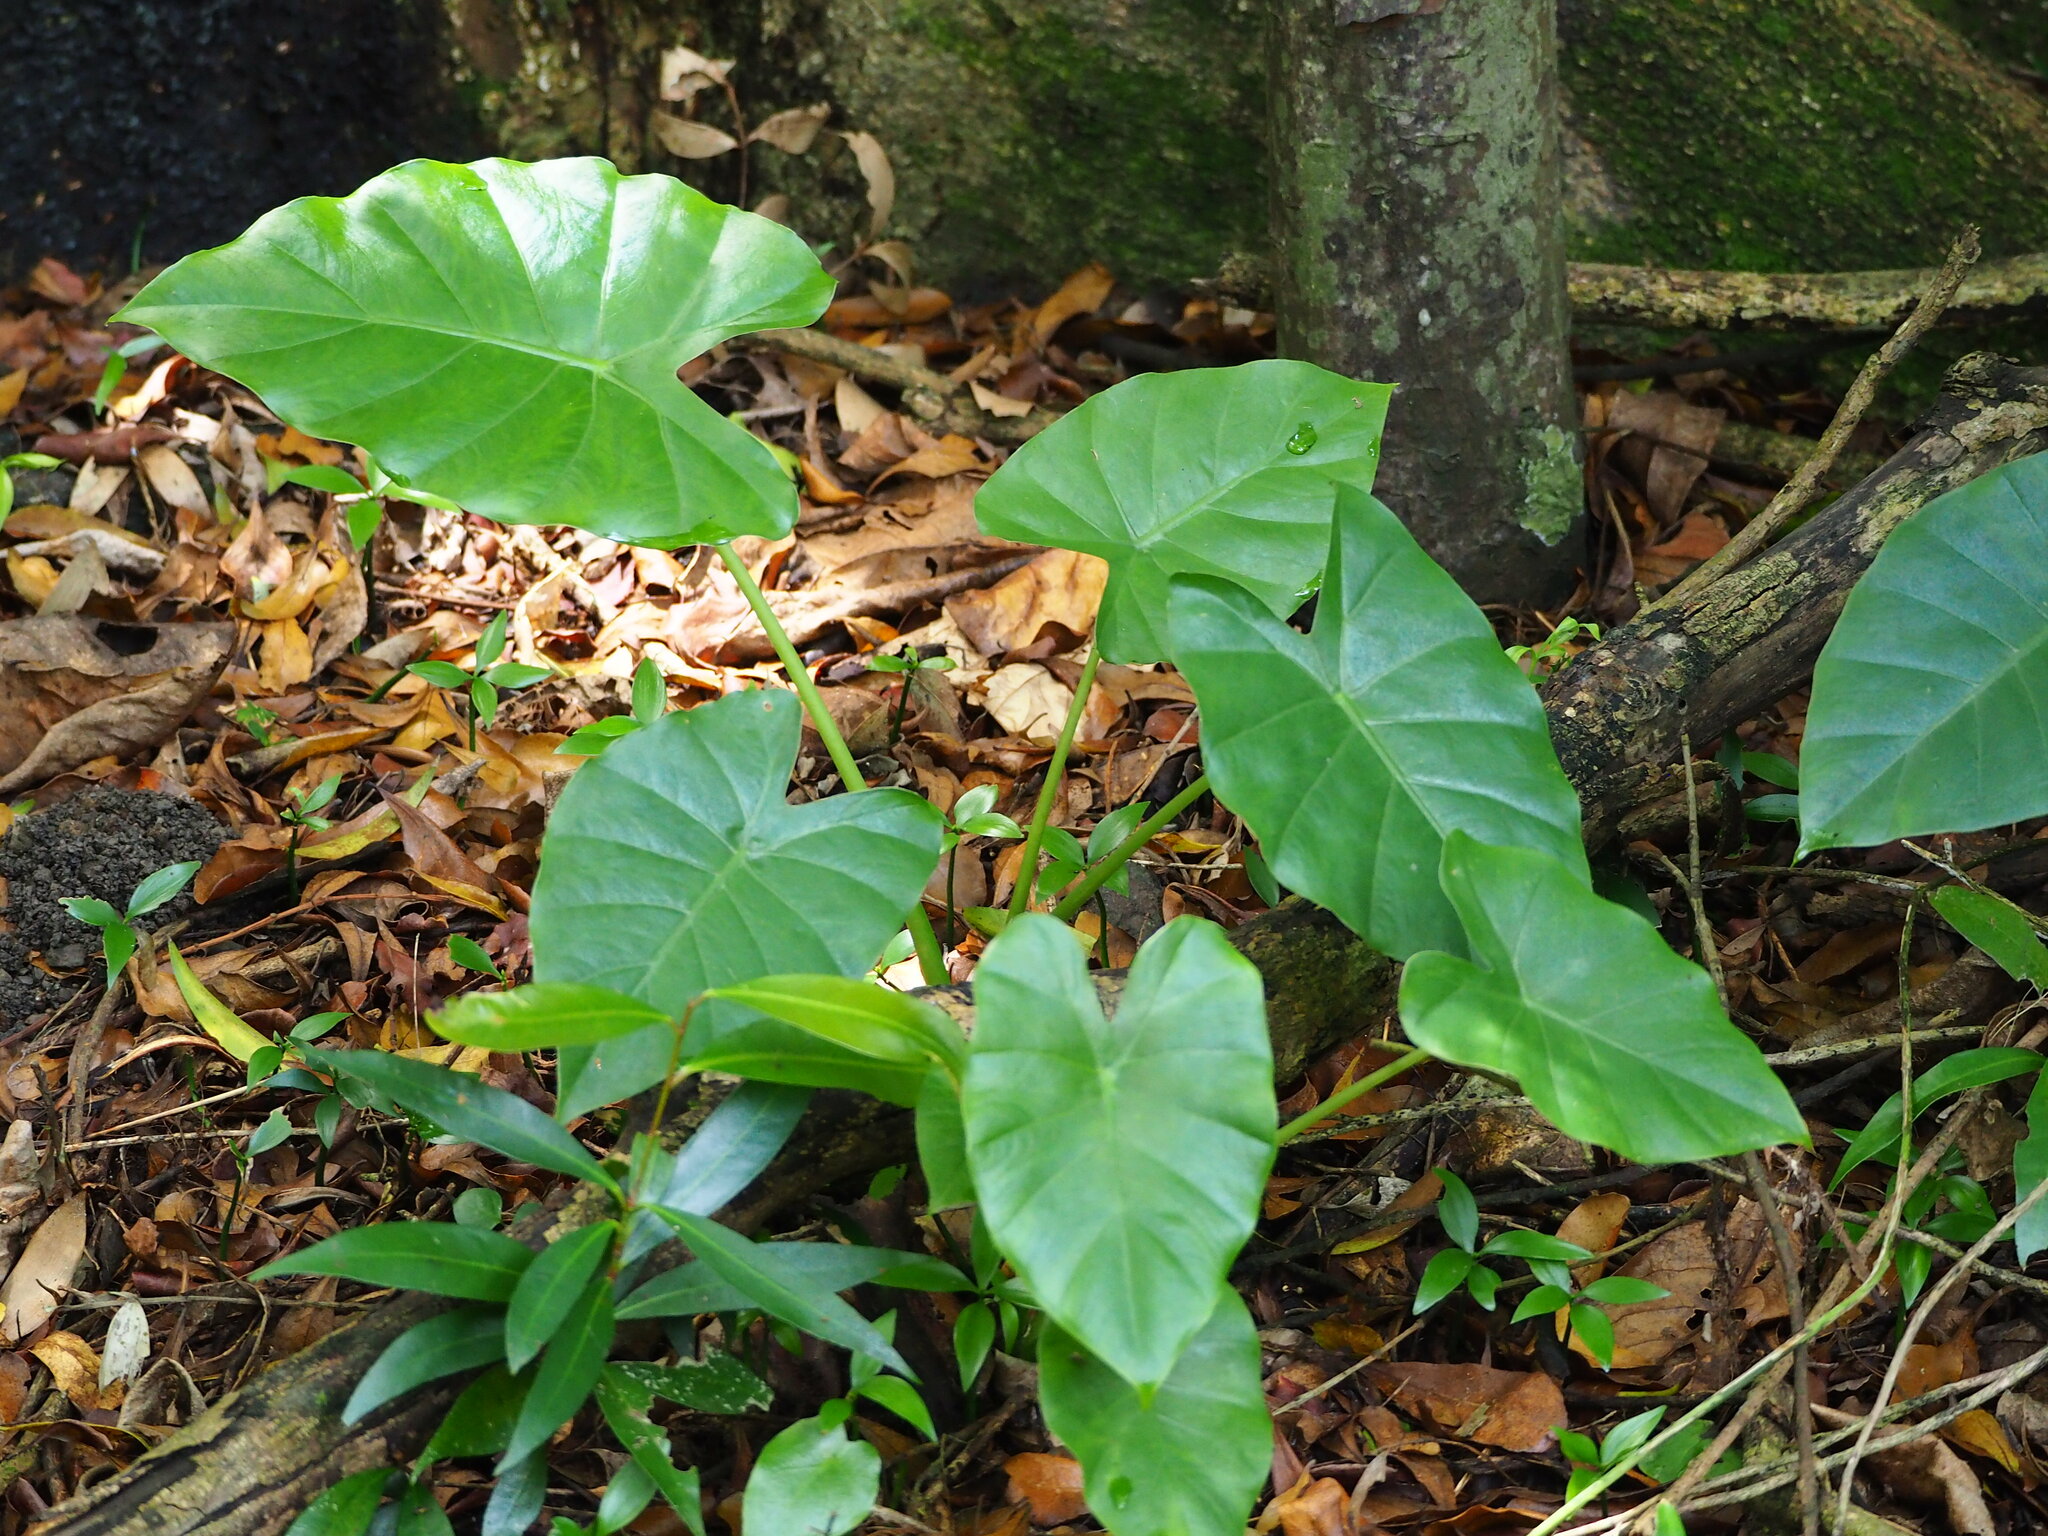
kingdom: Plantae
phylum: Tracheophyta
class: Liliopsida
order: Alismatales
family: Araceae
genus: Alocasia
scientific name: Alocasia odora
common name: Asian taro
